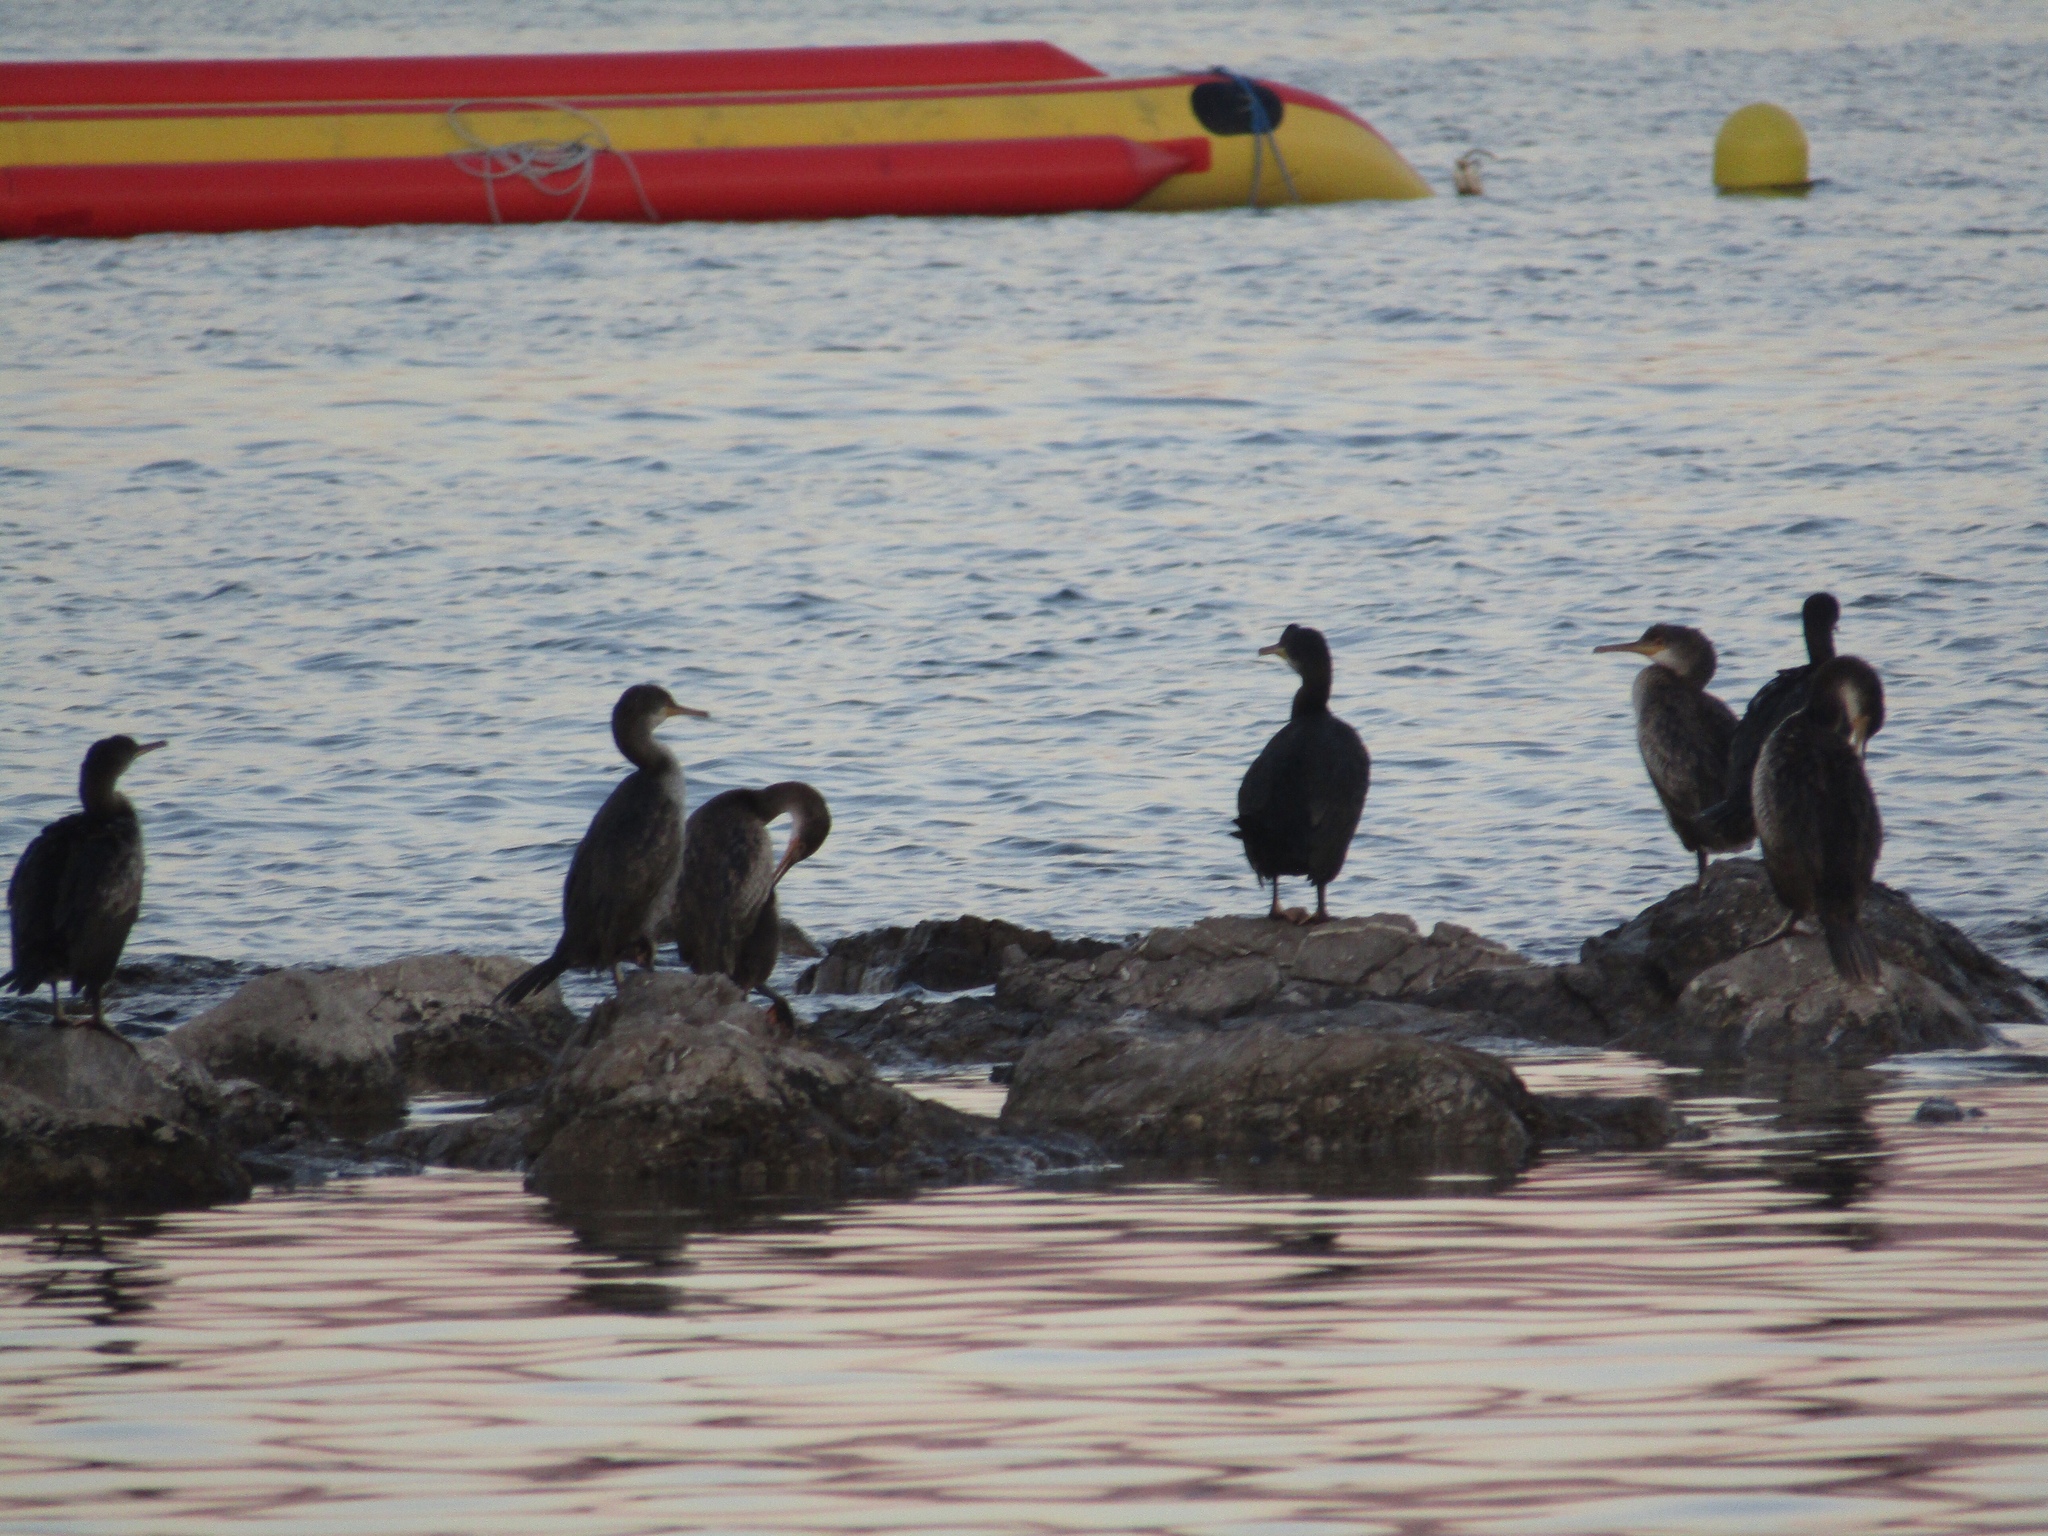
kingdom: Animalia
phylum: Chordata
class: Aves
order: Suliformes
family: Phalacrocoracidae
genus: Phalacrocorax
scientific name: Phalacrocorax aristotelis
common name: European shag
